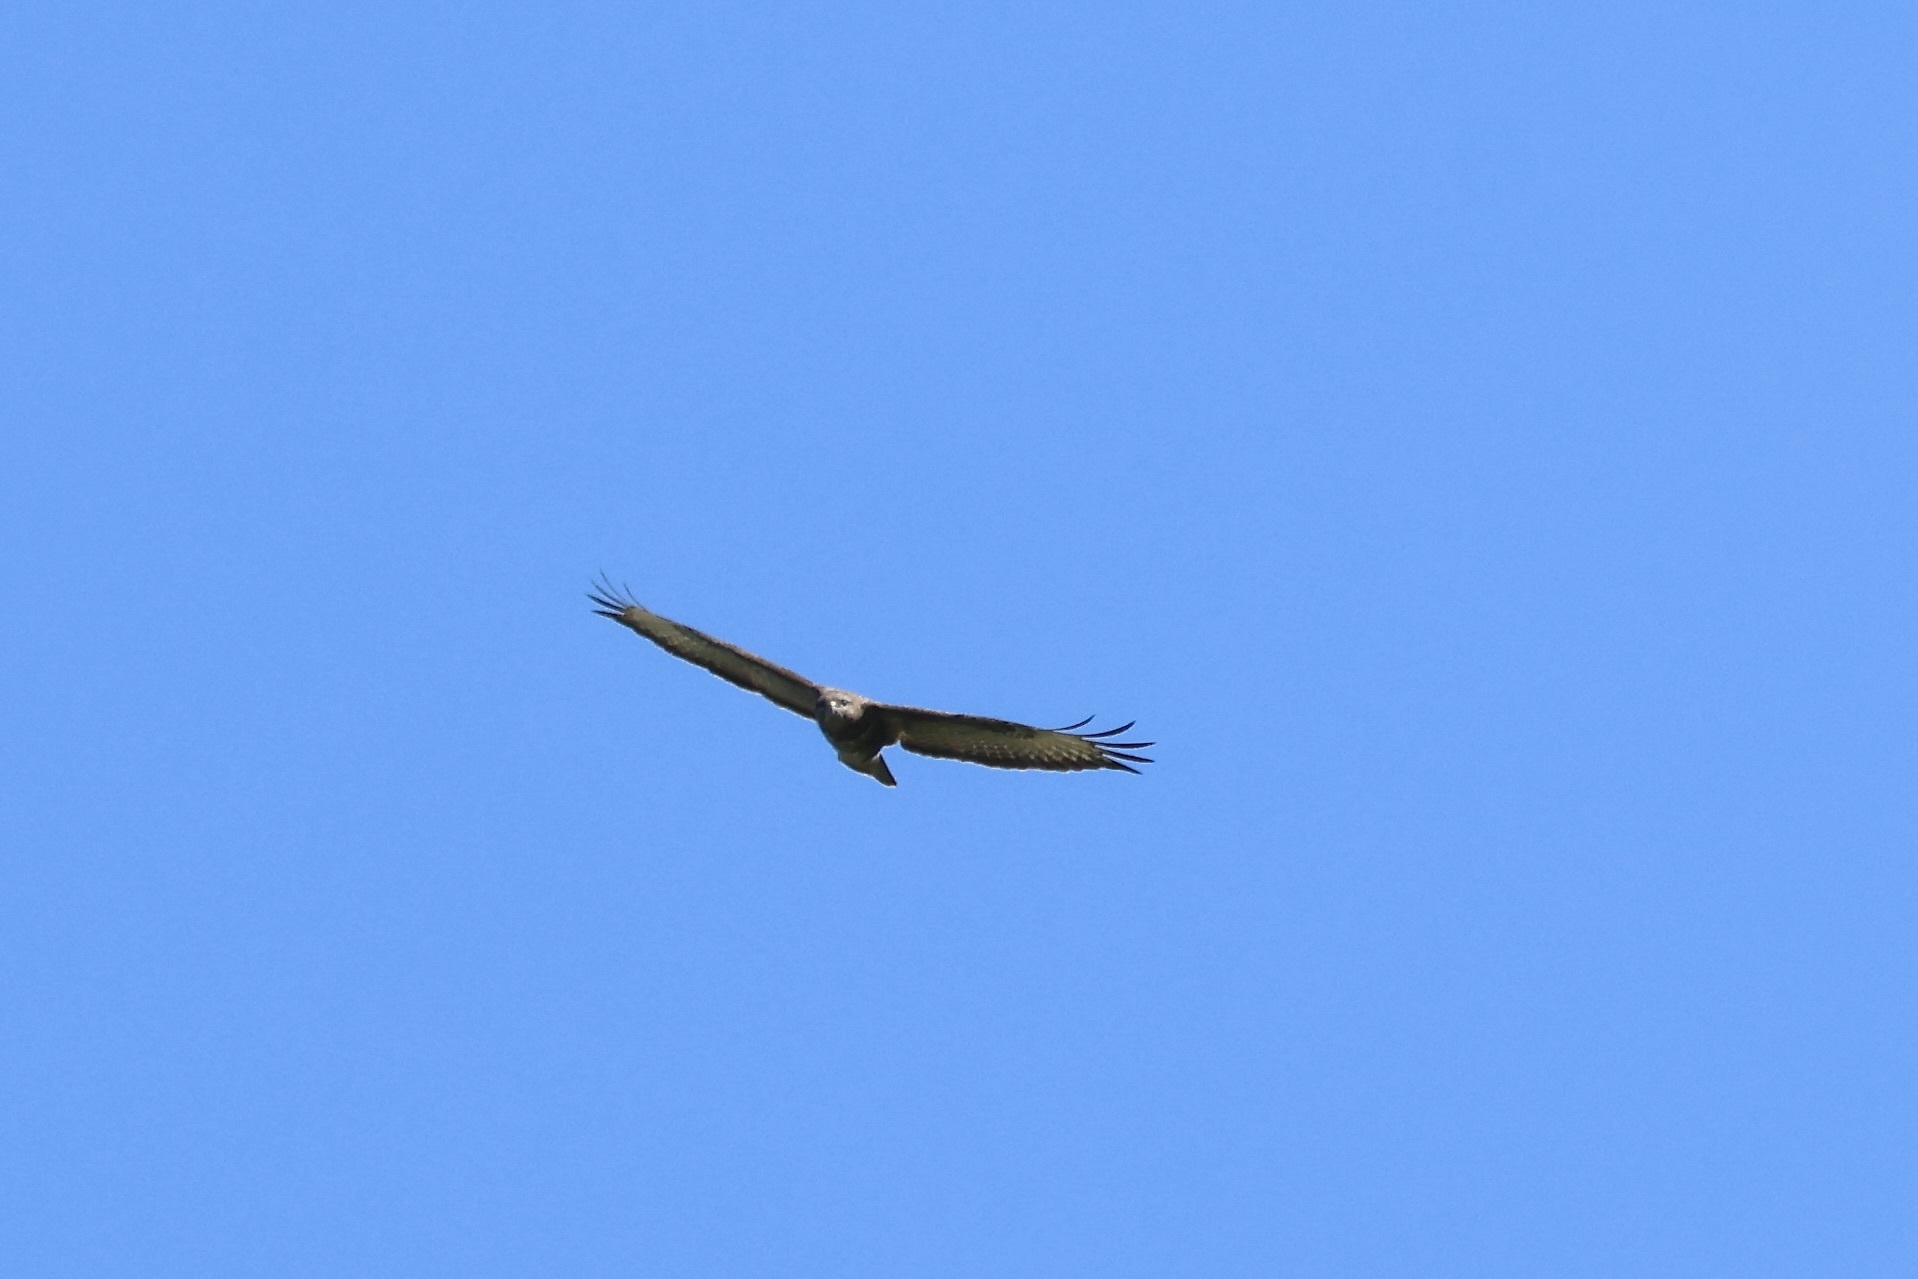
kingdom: Animalia
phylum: Chordata
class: Aves
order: Accipitriformes
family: Accipitridae
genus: Buteo
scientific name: Buteo buteo
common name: Common buzzard
